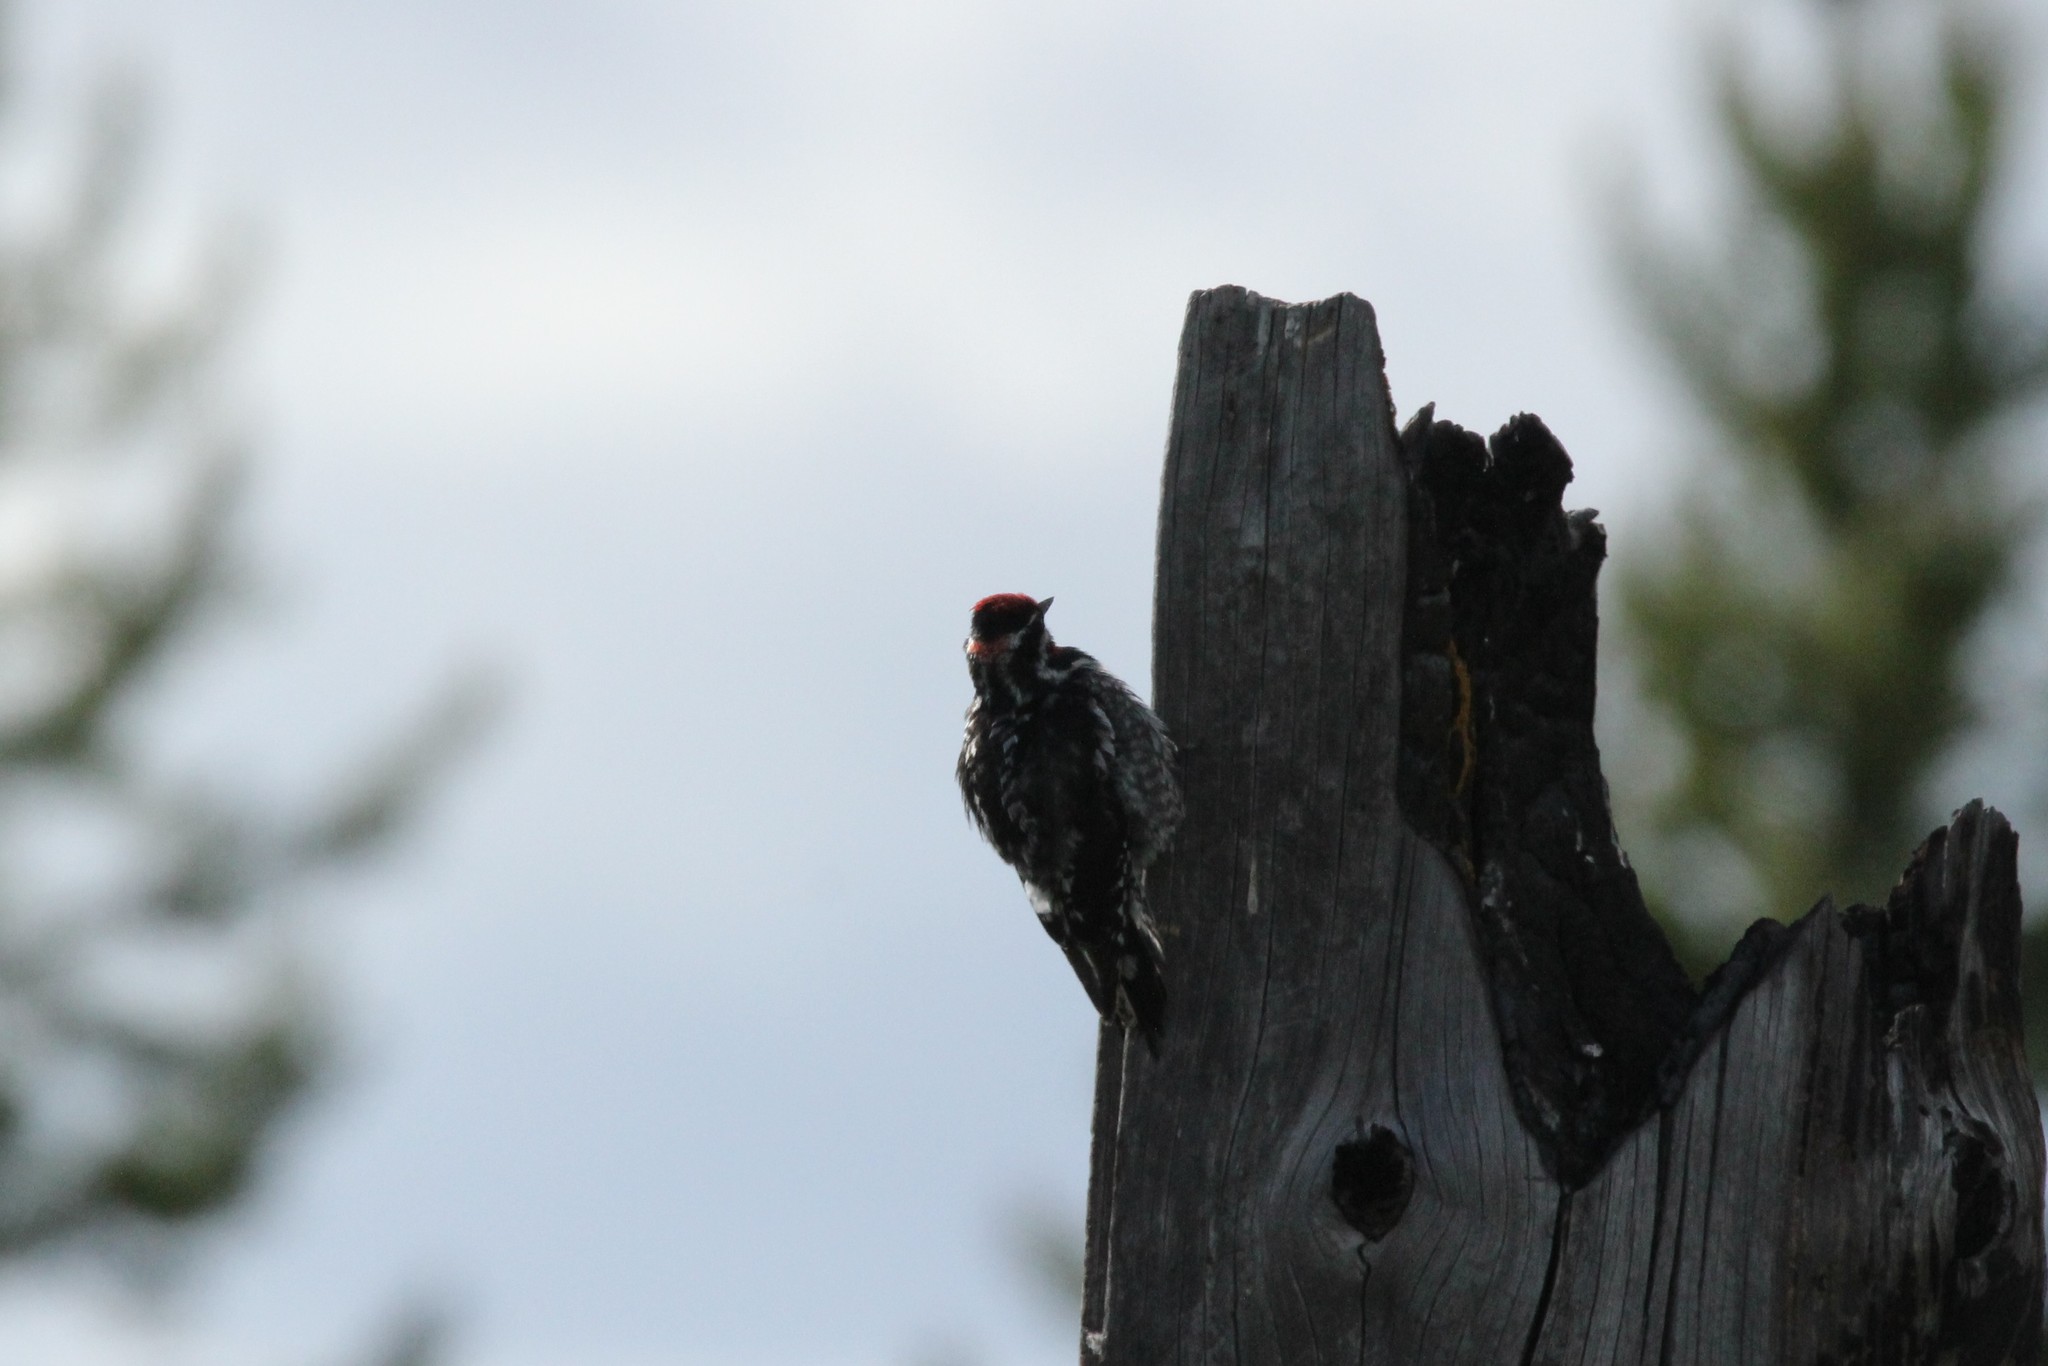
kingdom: Animalia
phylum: Chordata
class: Aves
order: Piciformes
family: Picidae
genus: Sphyrapicus
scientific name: Sphyrapicus nuchalis
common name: Red-naped sapsucker
